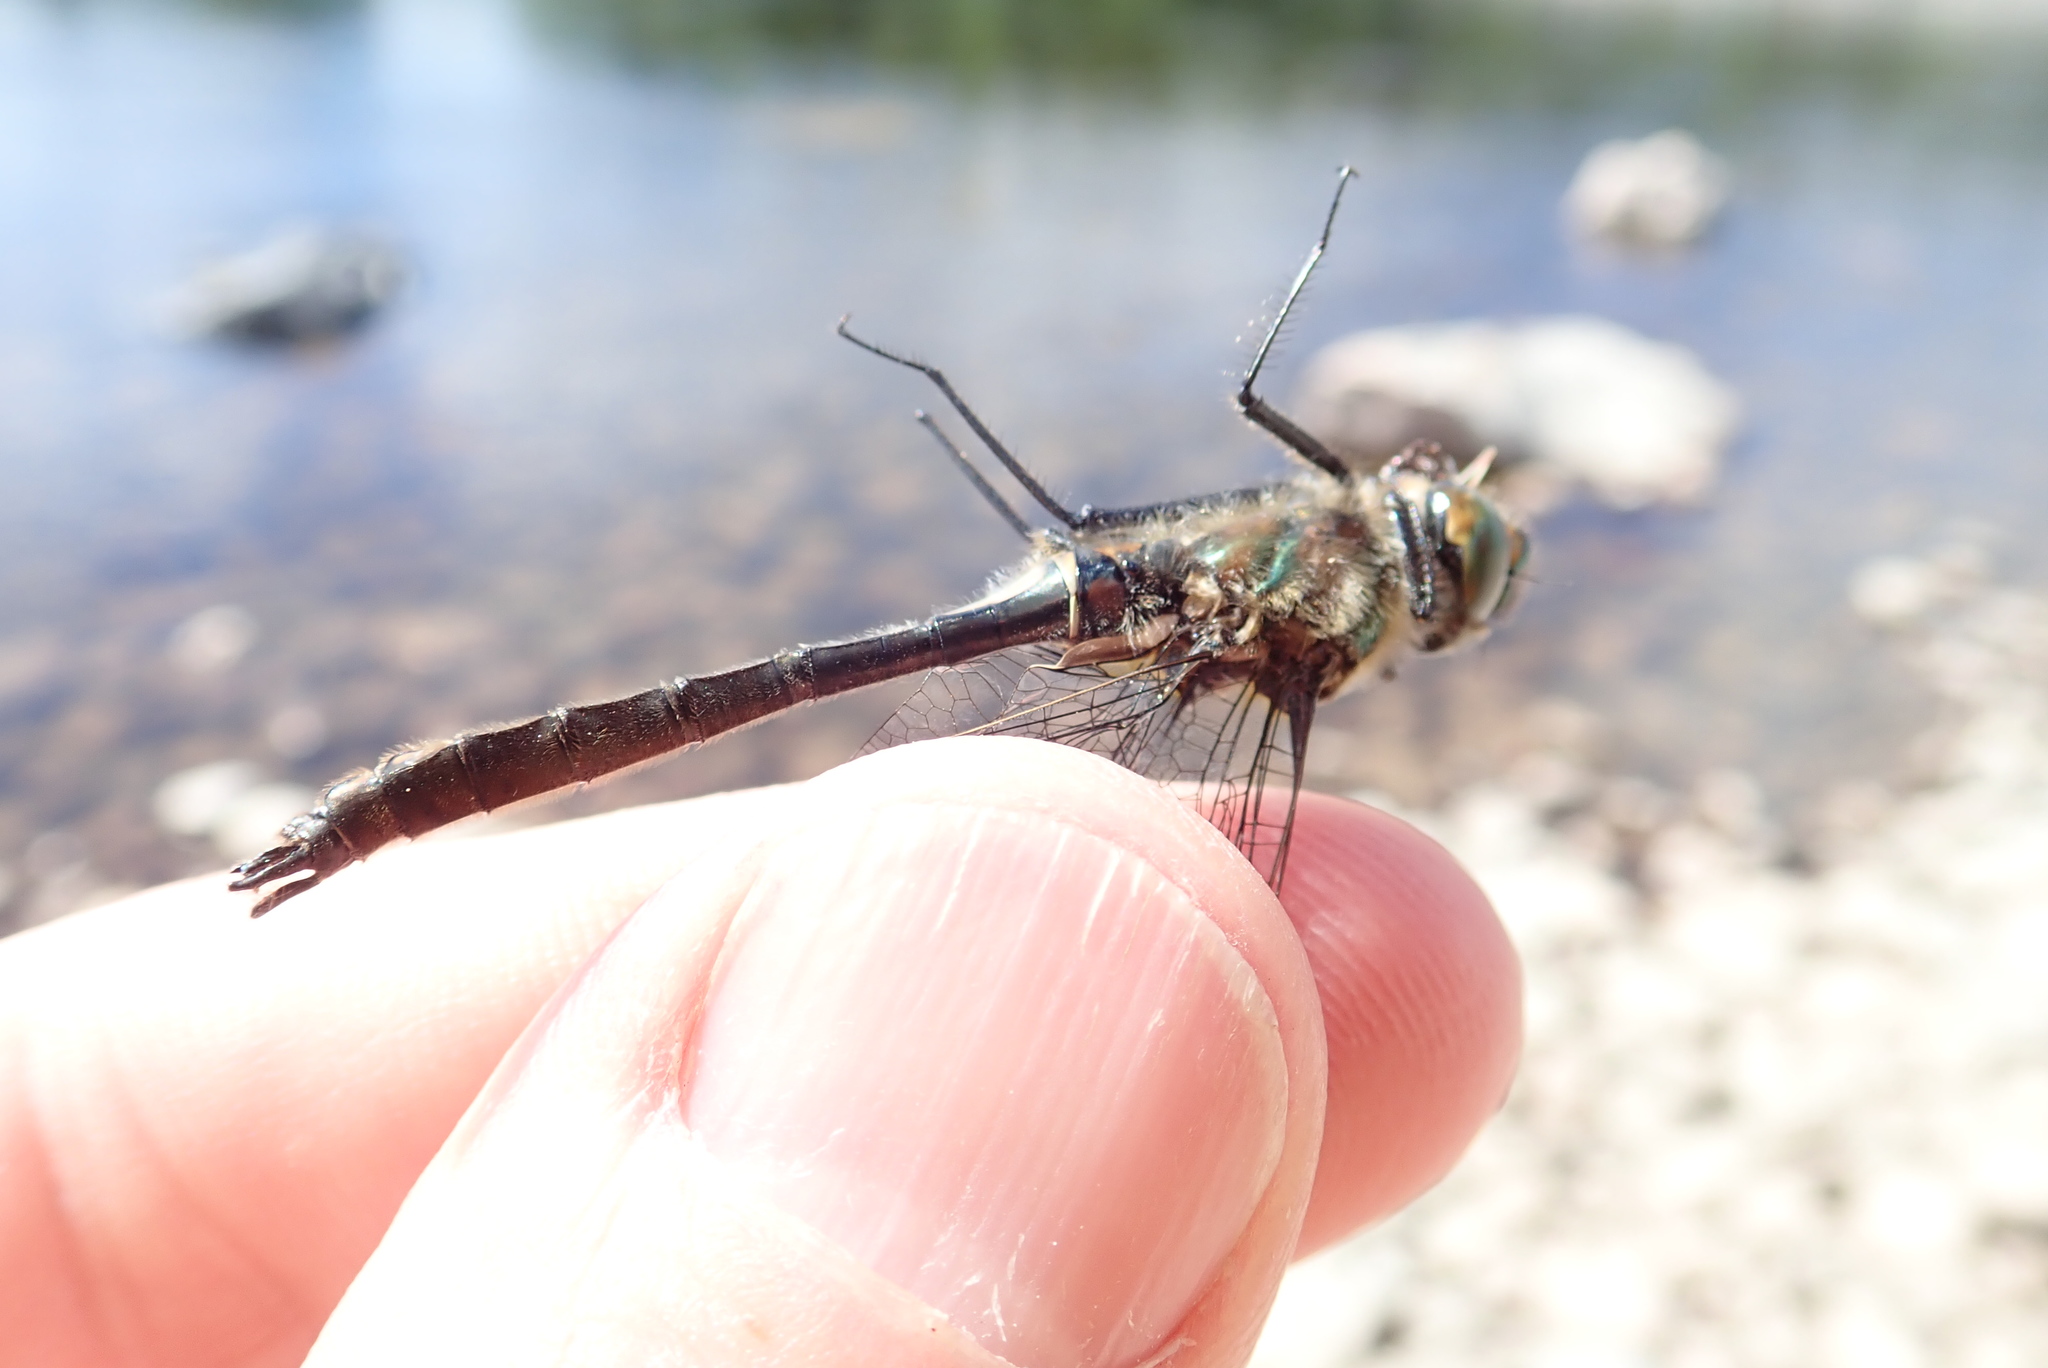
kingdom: Animalia
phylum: Arthropoda
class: Insecta
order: Odonata
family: Corduliidae
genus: Cordulia
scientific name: Cordulia shurtleffii
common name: American emerald
